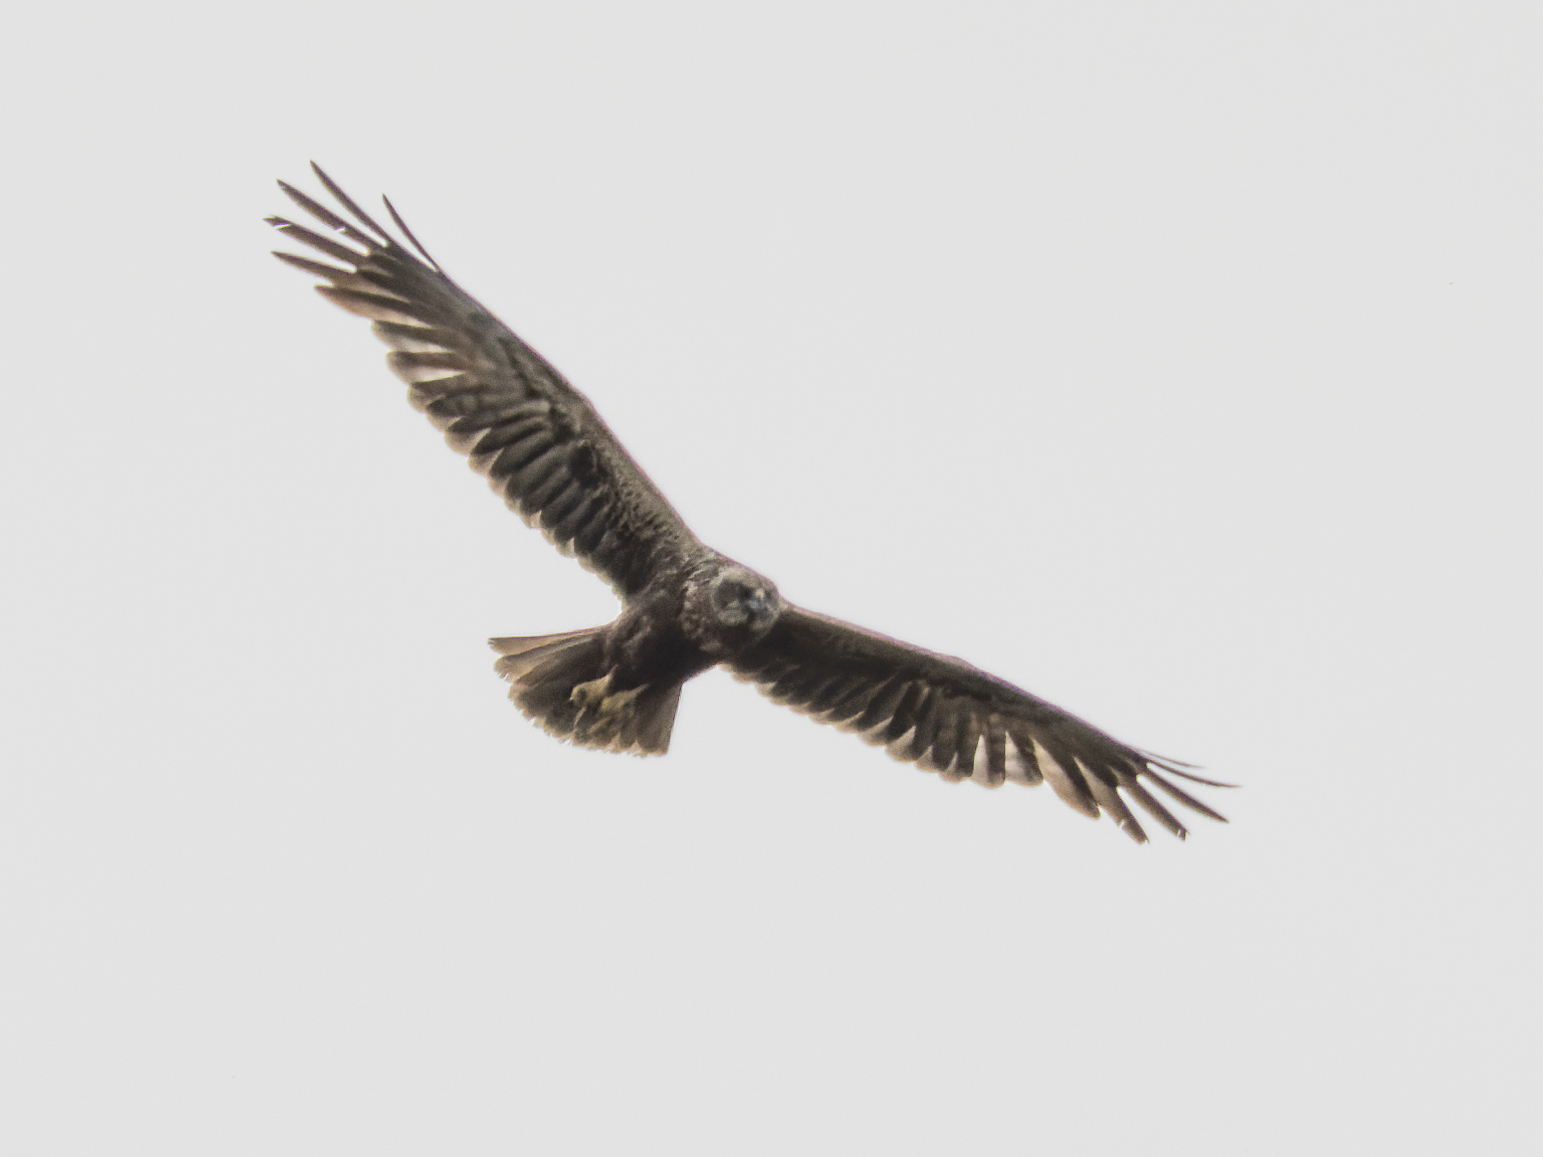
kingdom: Animalia
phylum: Chordata
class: Aves
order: Accipitriformes
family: Accipitridae
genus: Circus
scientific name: Circus aeruginosus
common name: Western marsh harrier
